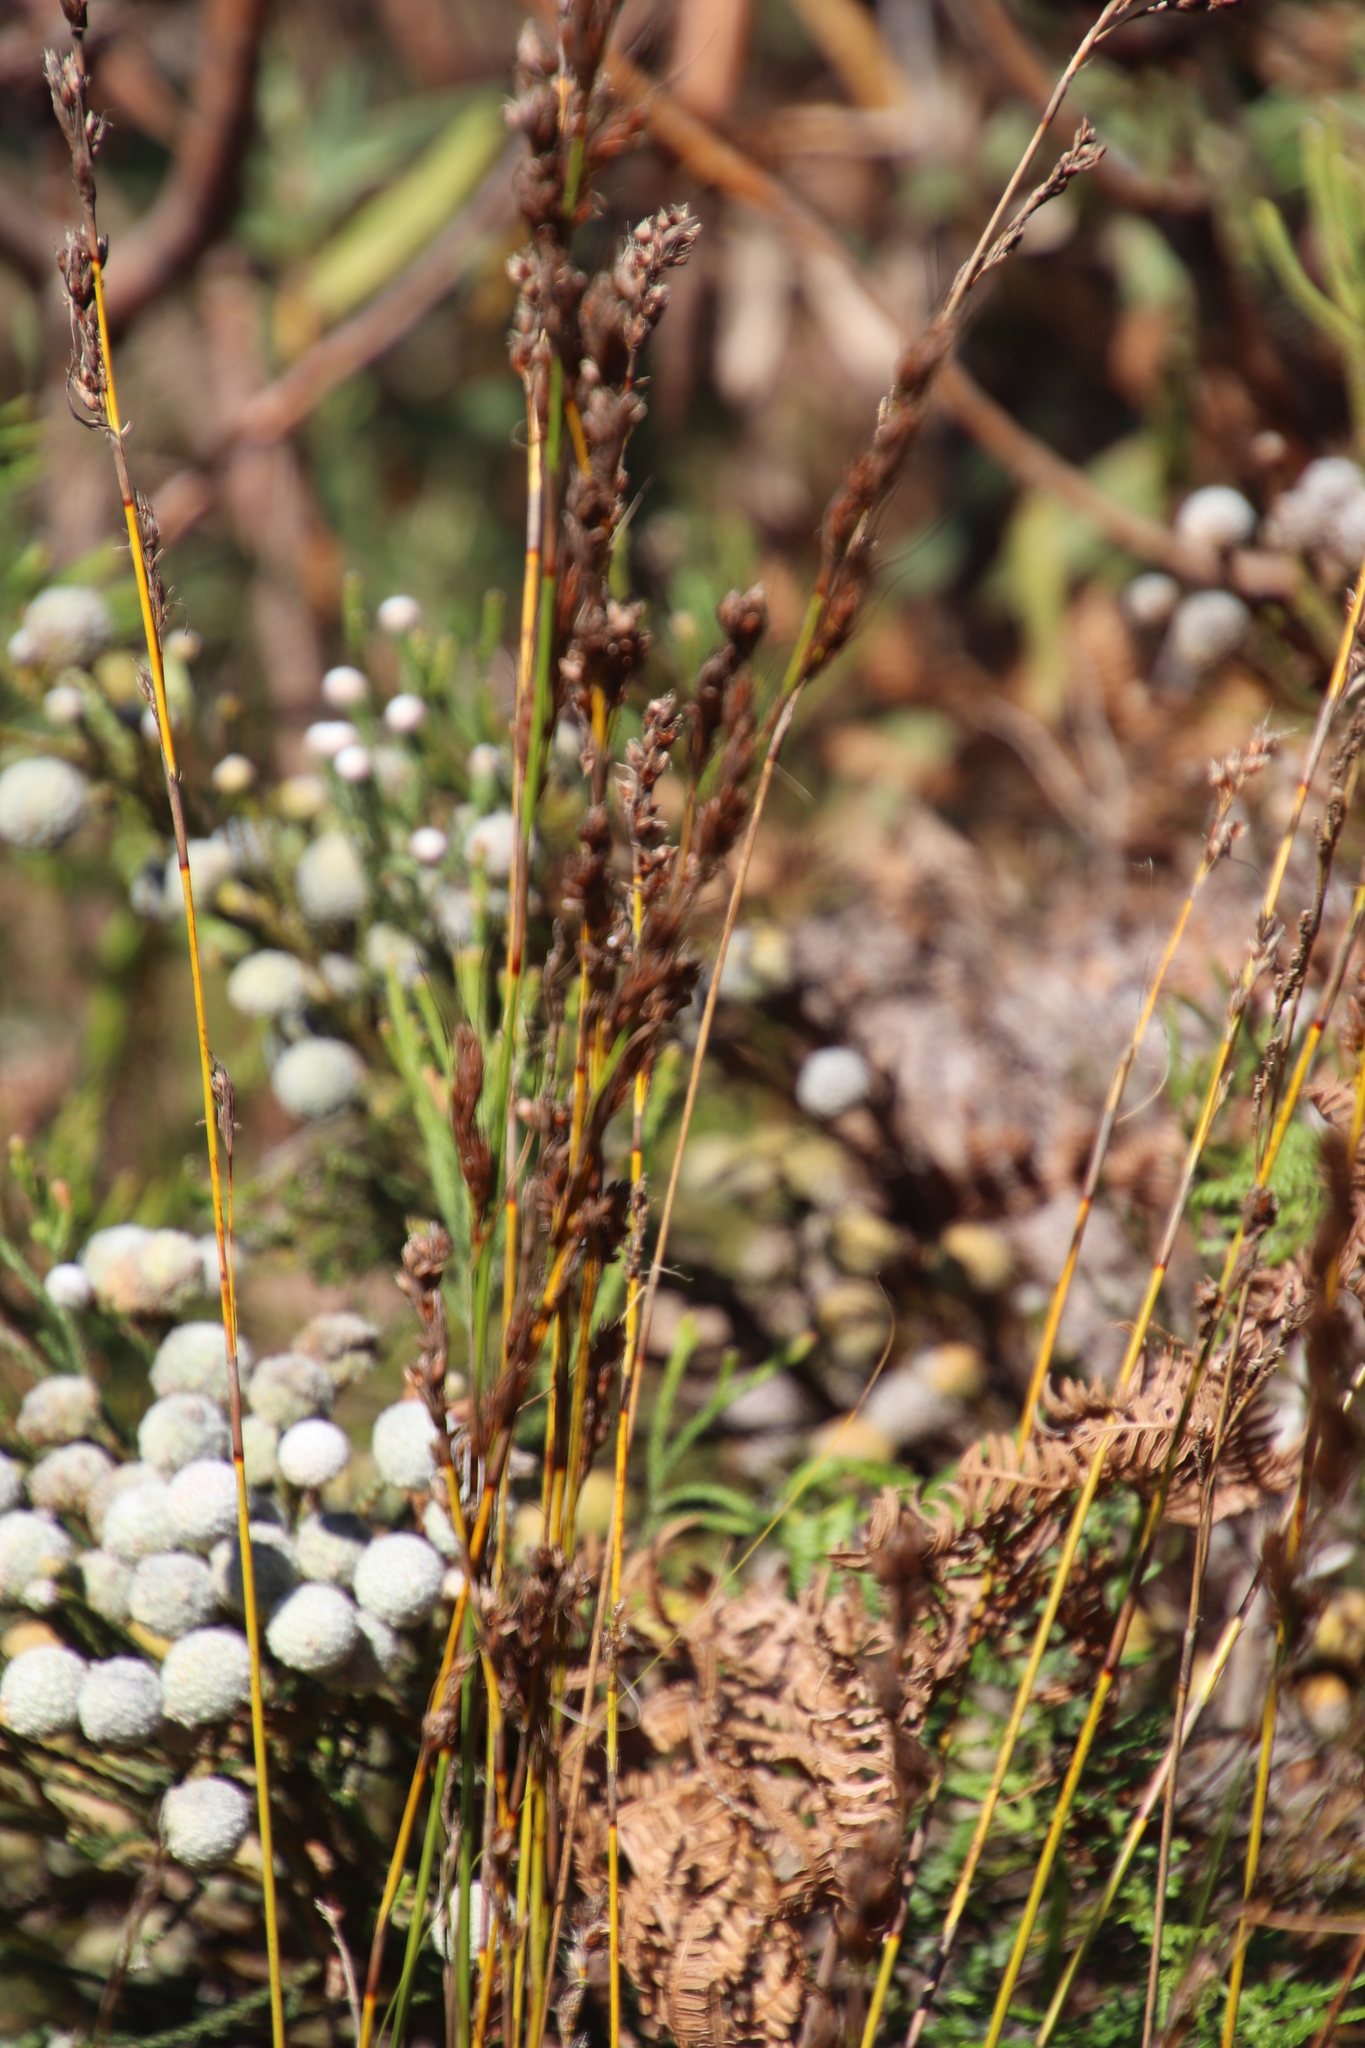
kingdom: Plantae
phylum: Tracheophyta
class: Liliopsida
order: Poales
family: Cyperaceae
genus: Tetraria
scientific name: Tetraria ustulata
